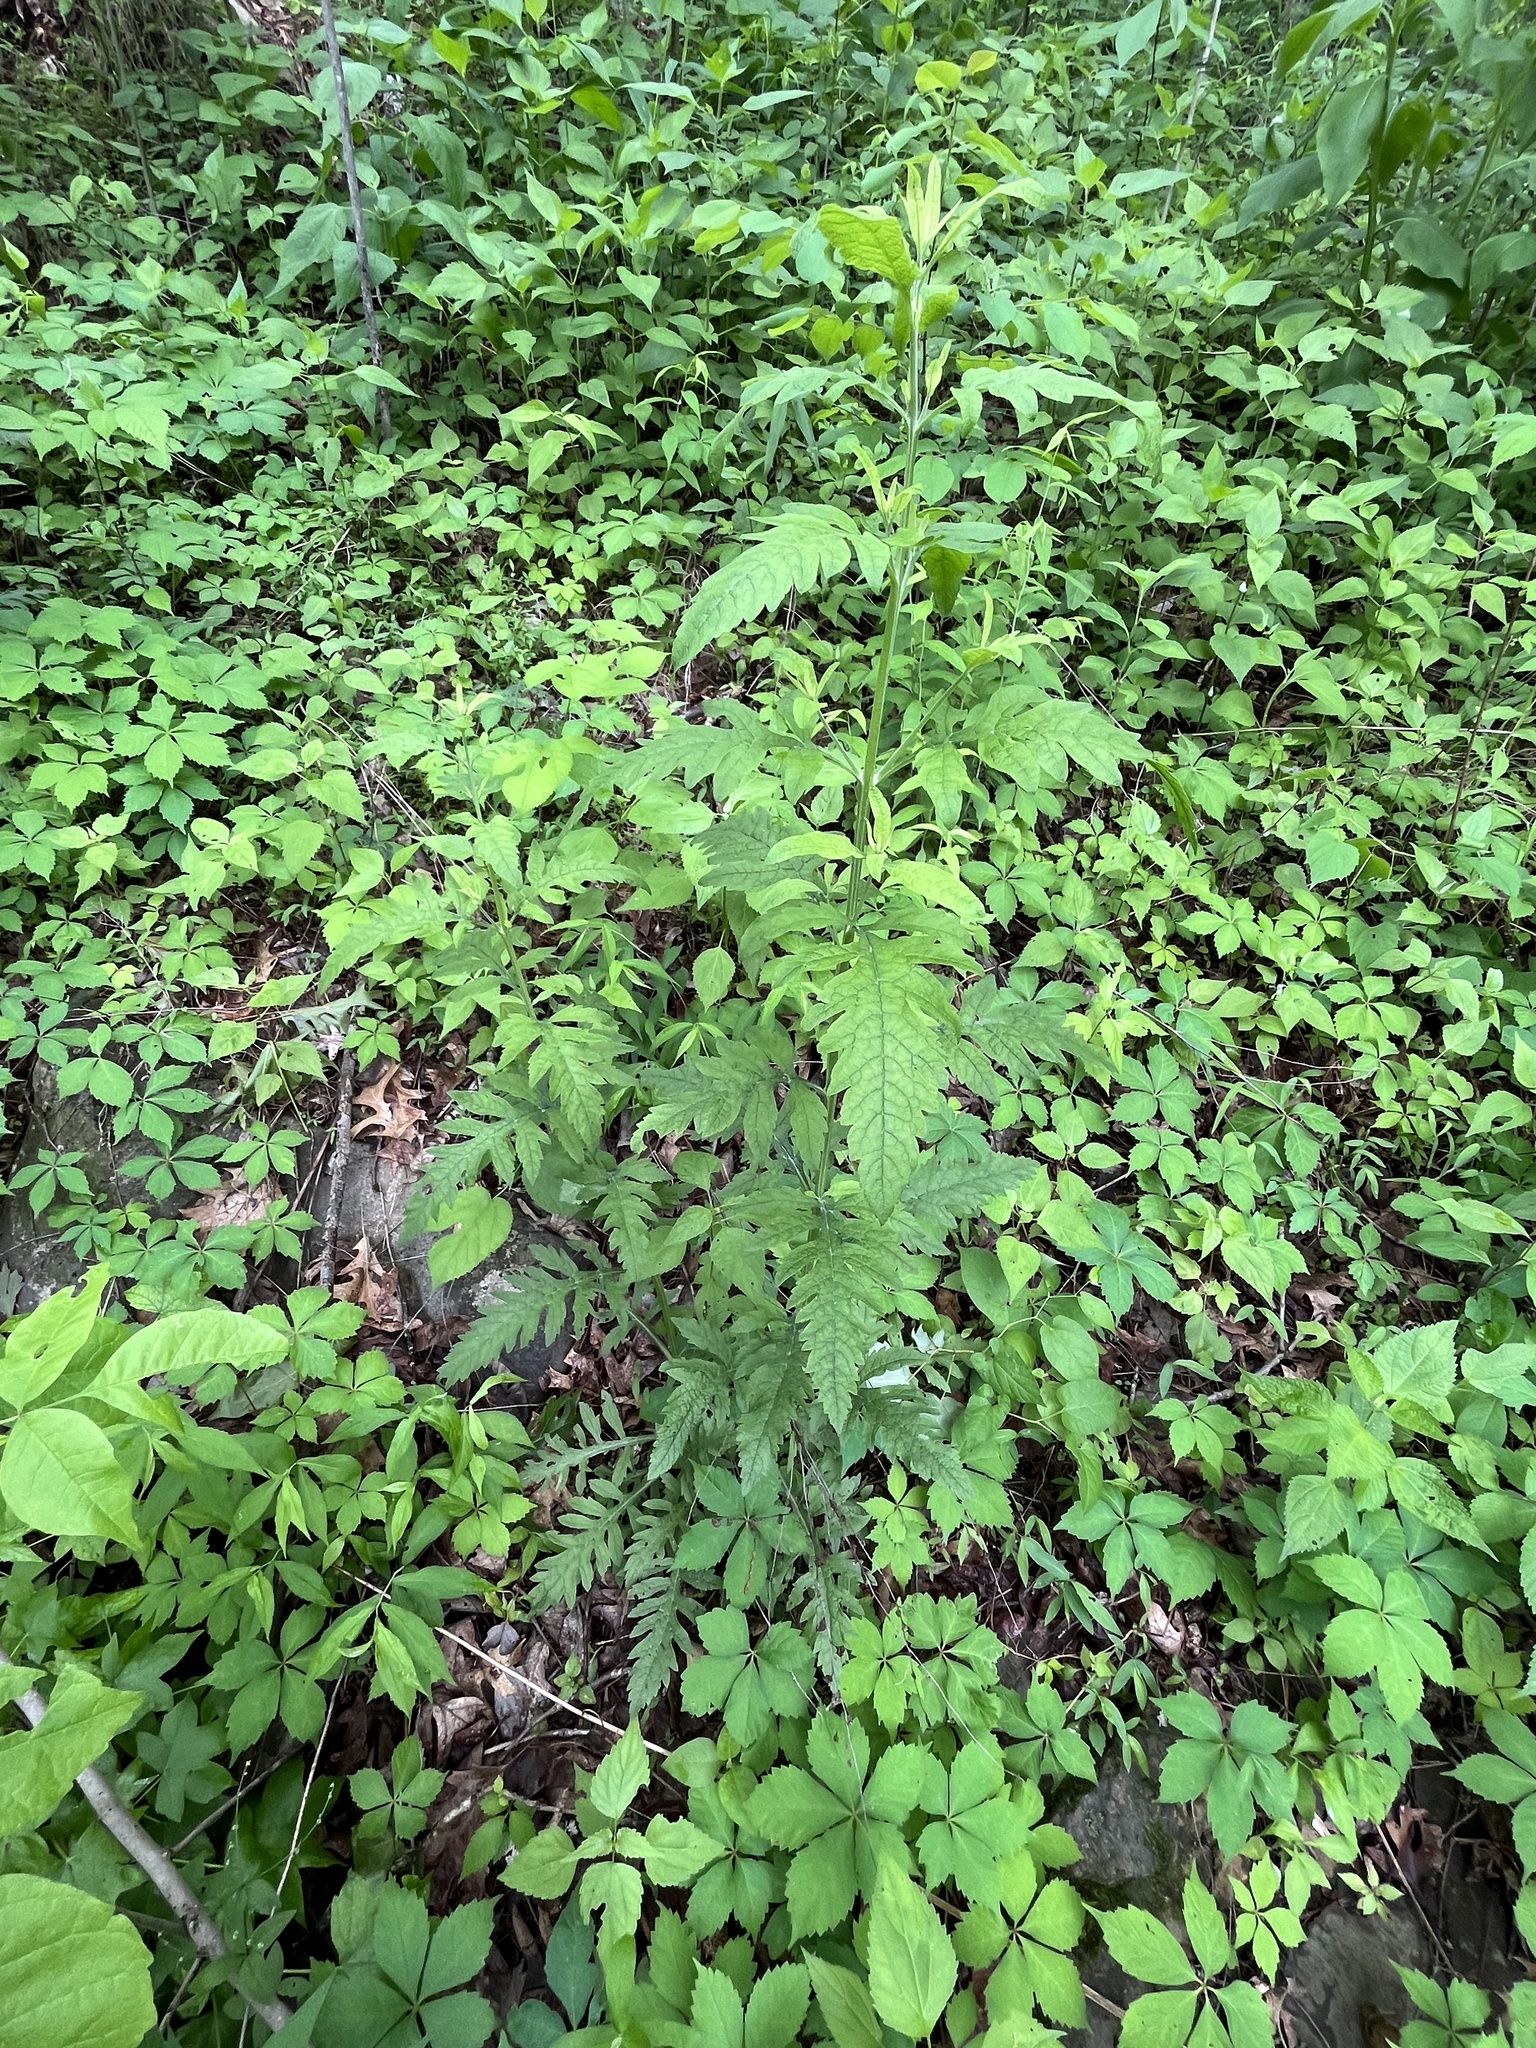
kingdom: Plantae
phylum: Tracheophyta
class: Magnoliopsida
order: Lamiales
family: Orobanchaceae
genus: Dasistoma
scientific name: Dasistoma macrophyllum
